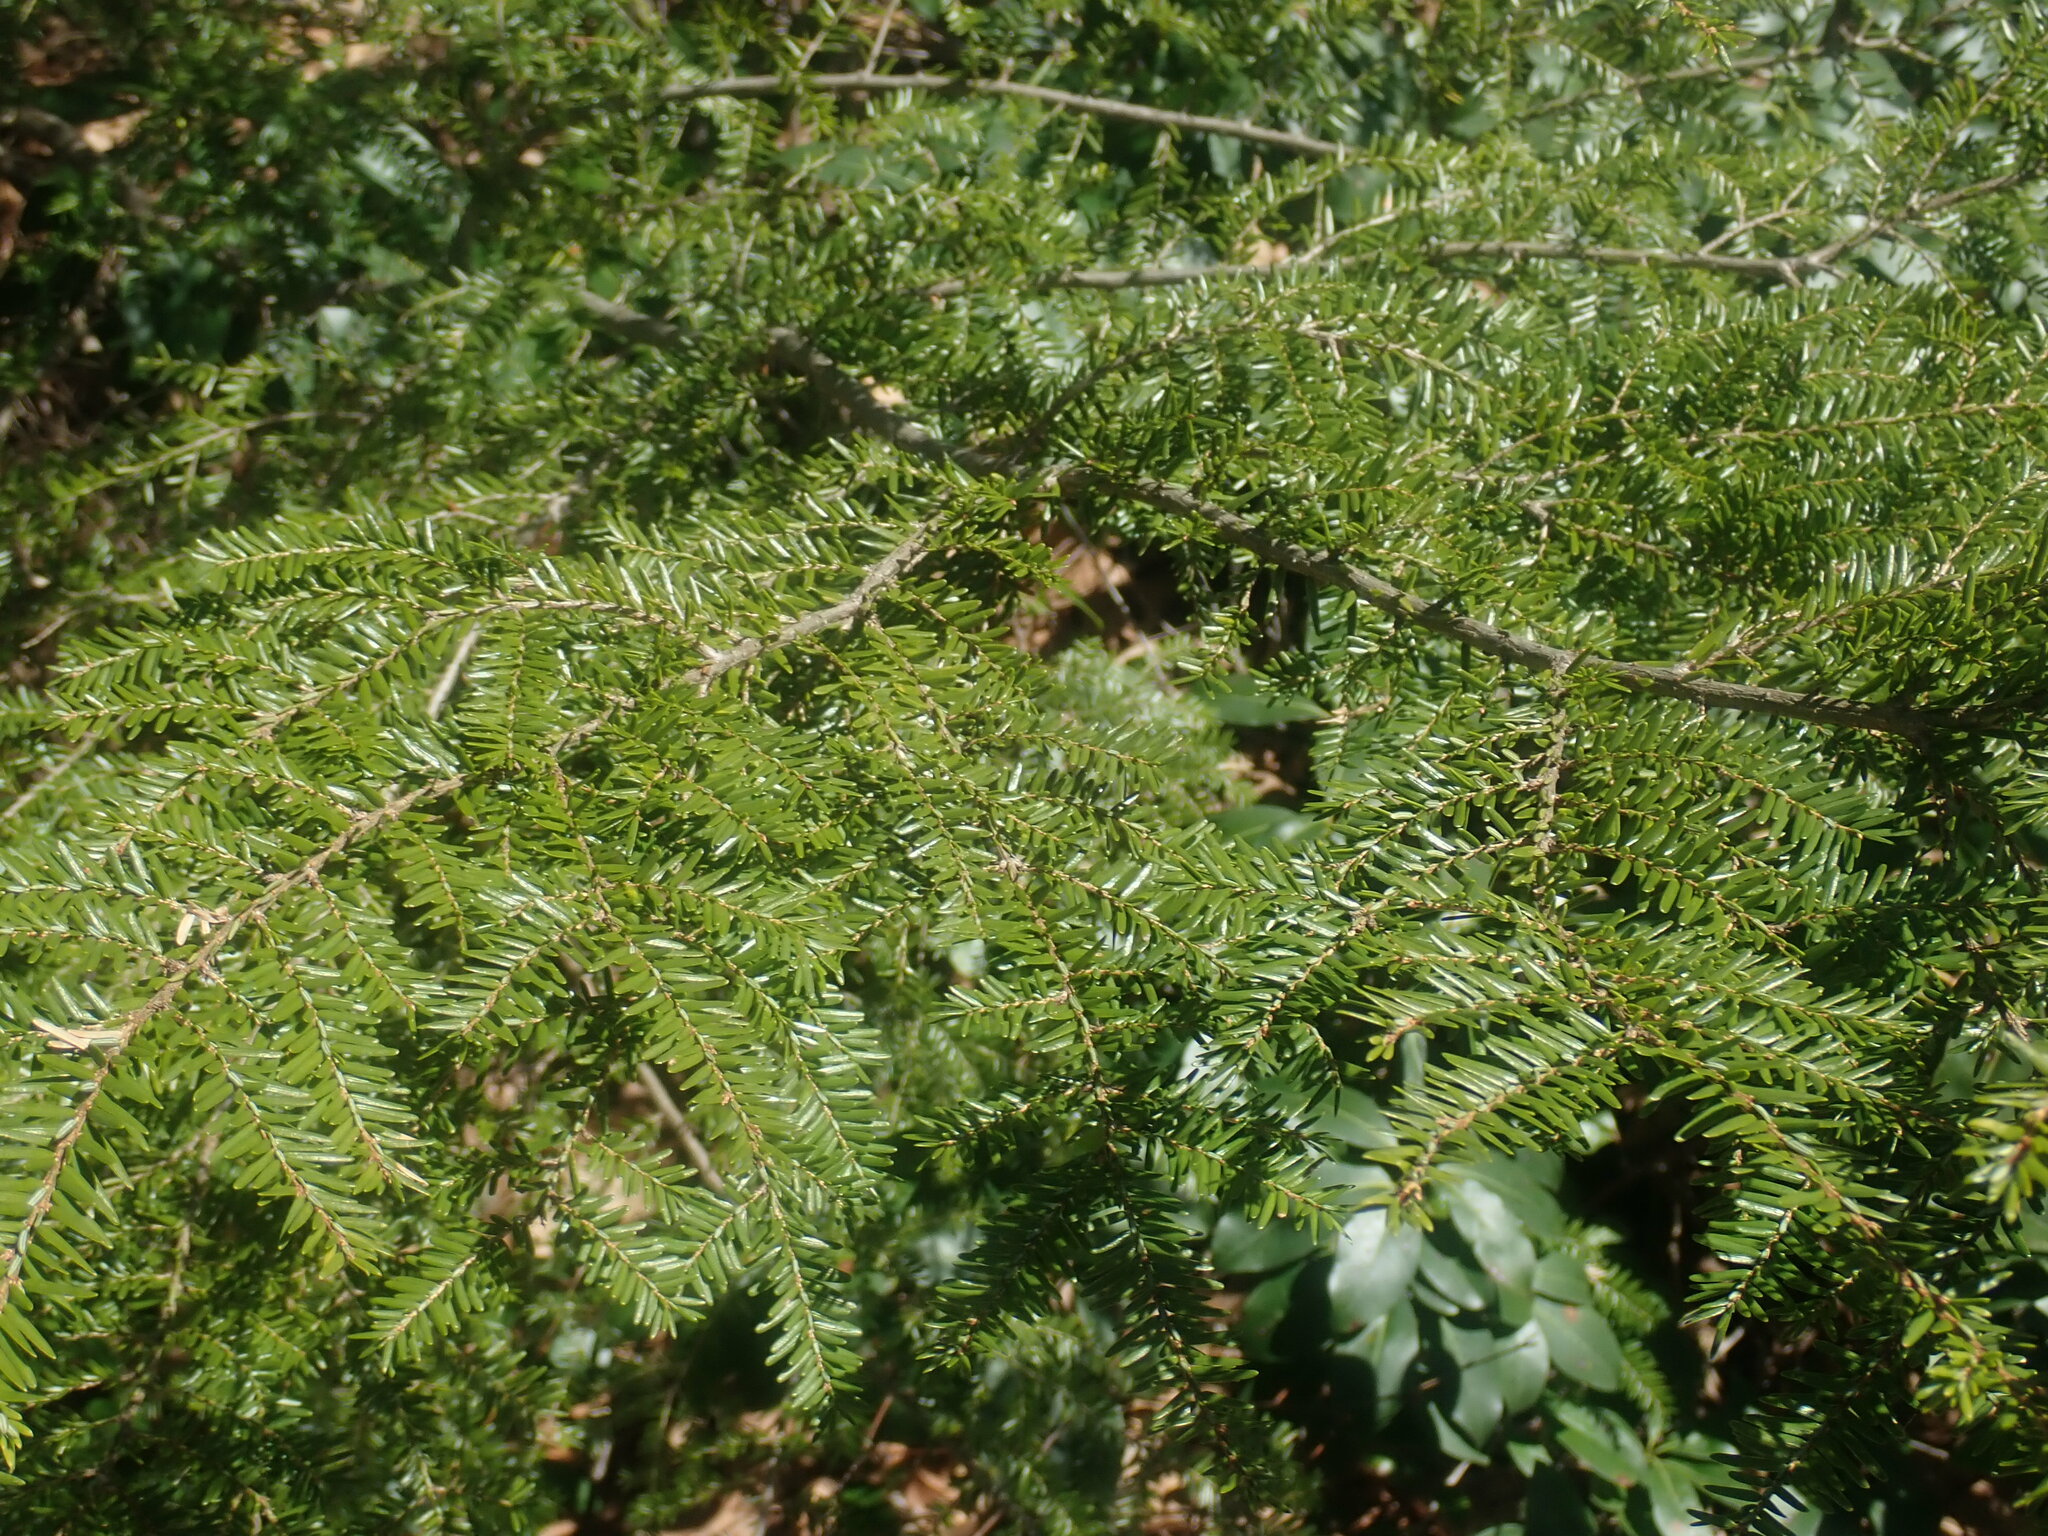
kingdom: Plantae
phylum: Tracheophyta
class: Pinopsida
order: Pinales
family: Pinaceae
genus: Tsuga
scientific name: Tsuga canadensis
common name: Eastern hemlock
